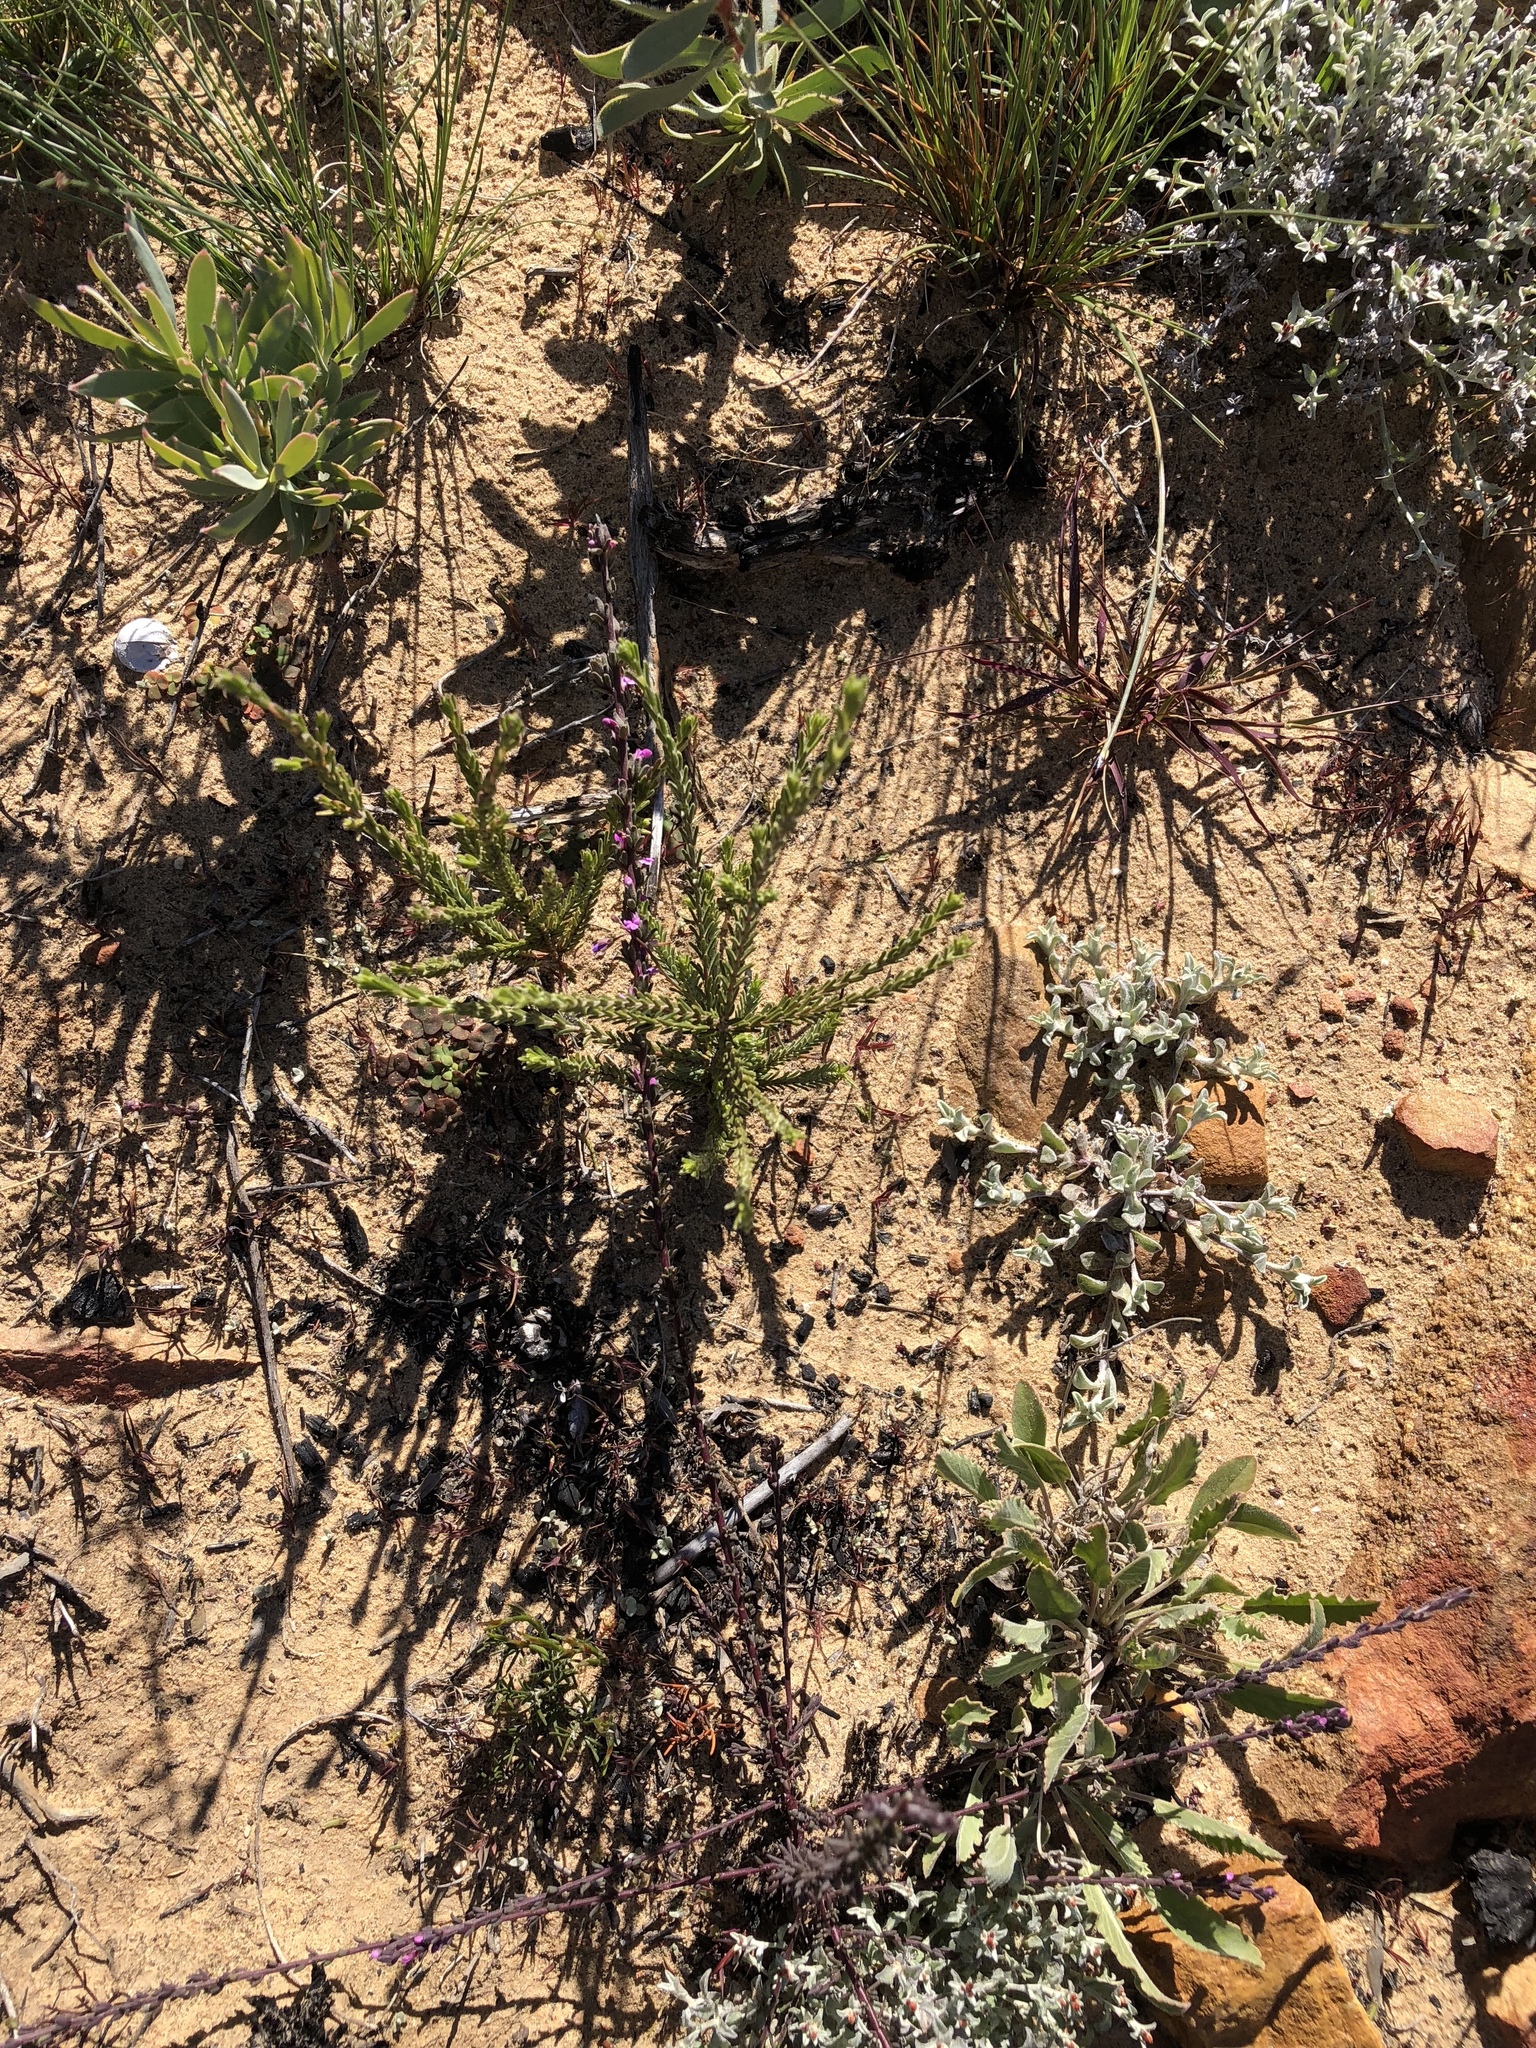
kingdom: Plantae
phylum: Tracheophyta
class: Magnoliopsida
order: Fabales
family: Polygalaceae
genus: Muraltia
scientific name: Muraltia commutata
